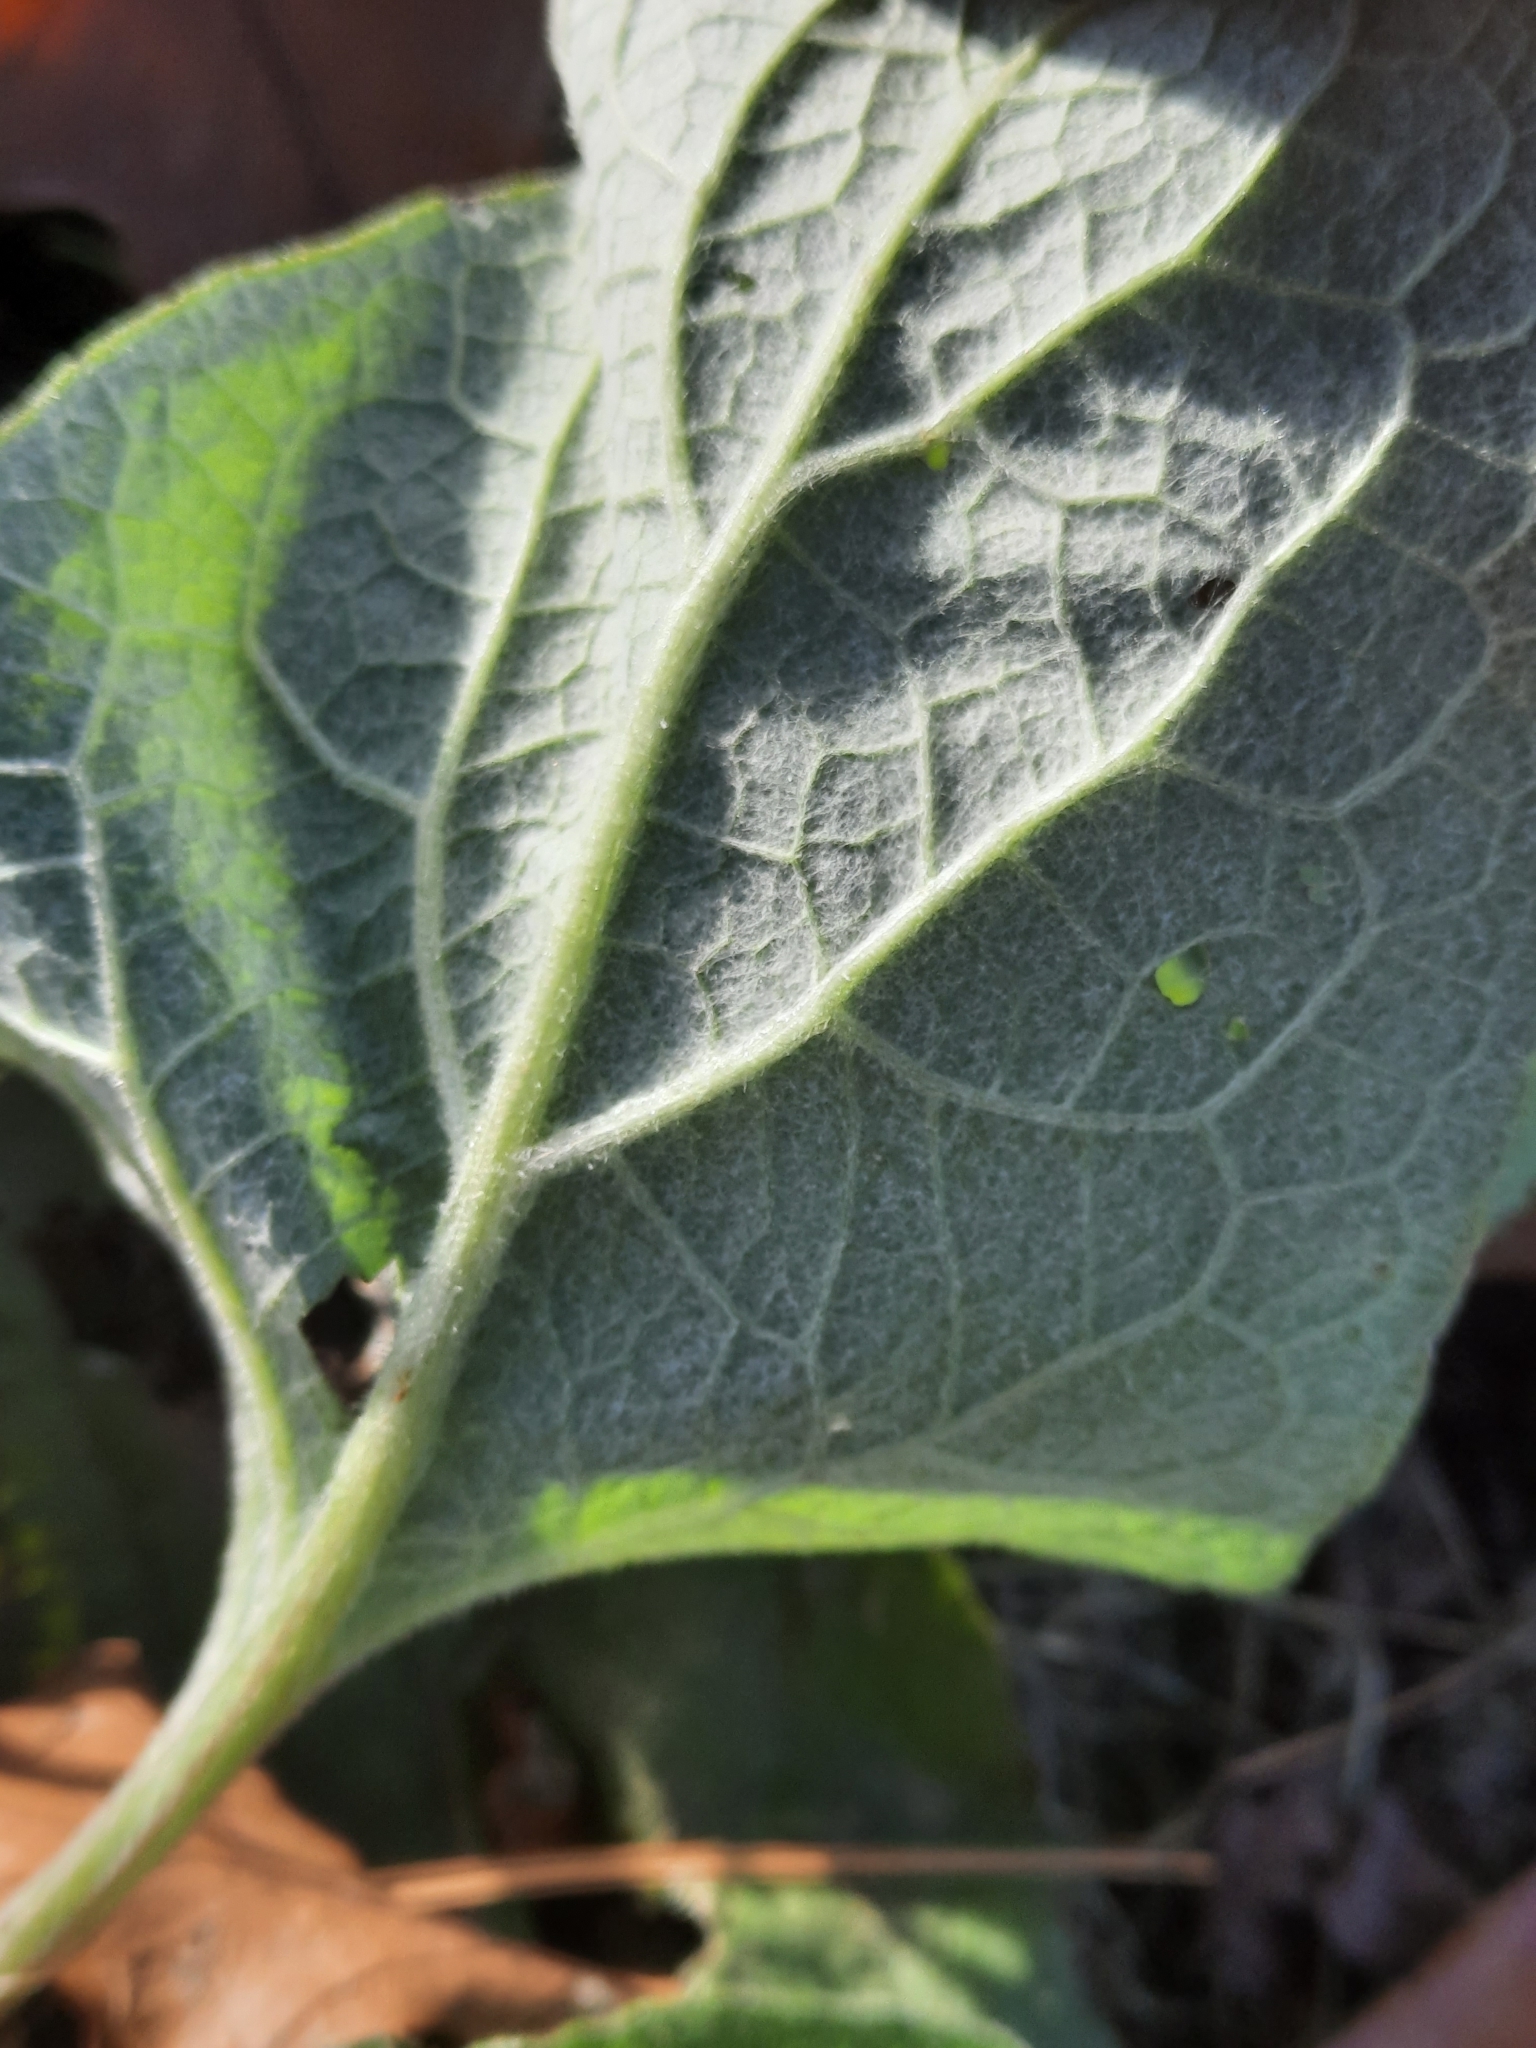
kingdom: Plantae
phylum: Tracheophyta
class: Magnoliopsida
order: Asterales
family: Asteraceae
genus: Arctium
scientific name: Arctium
